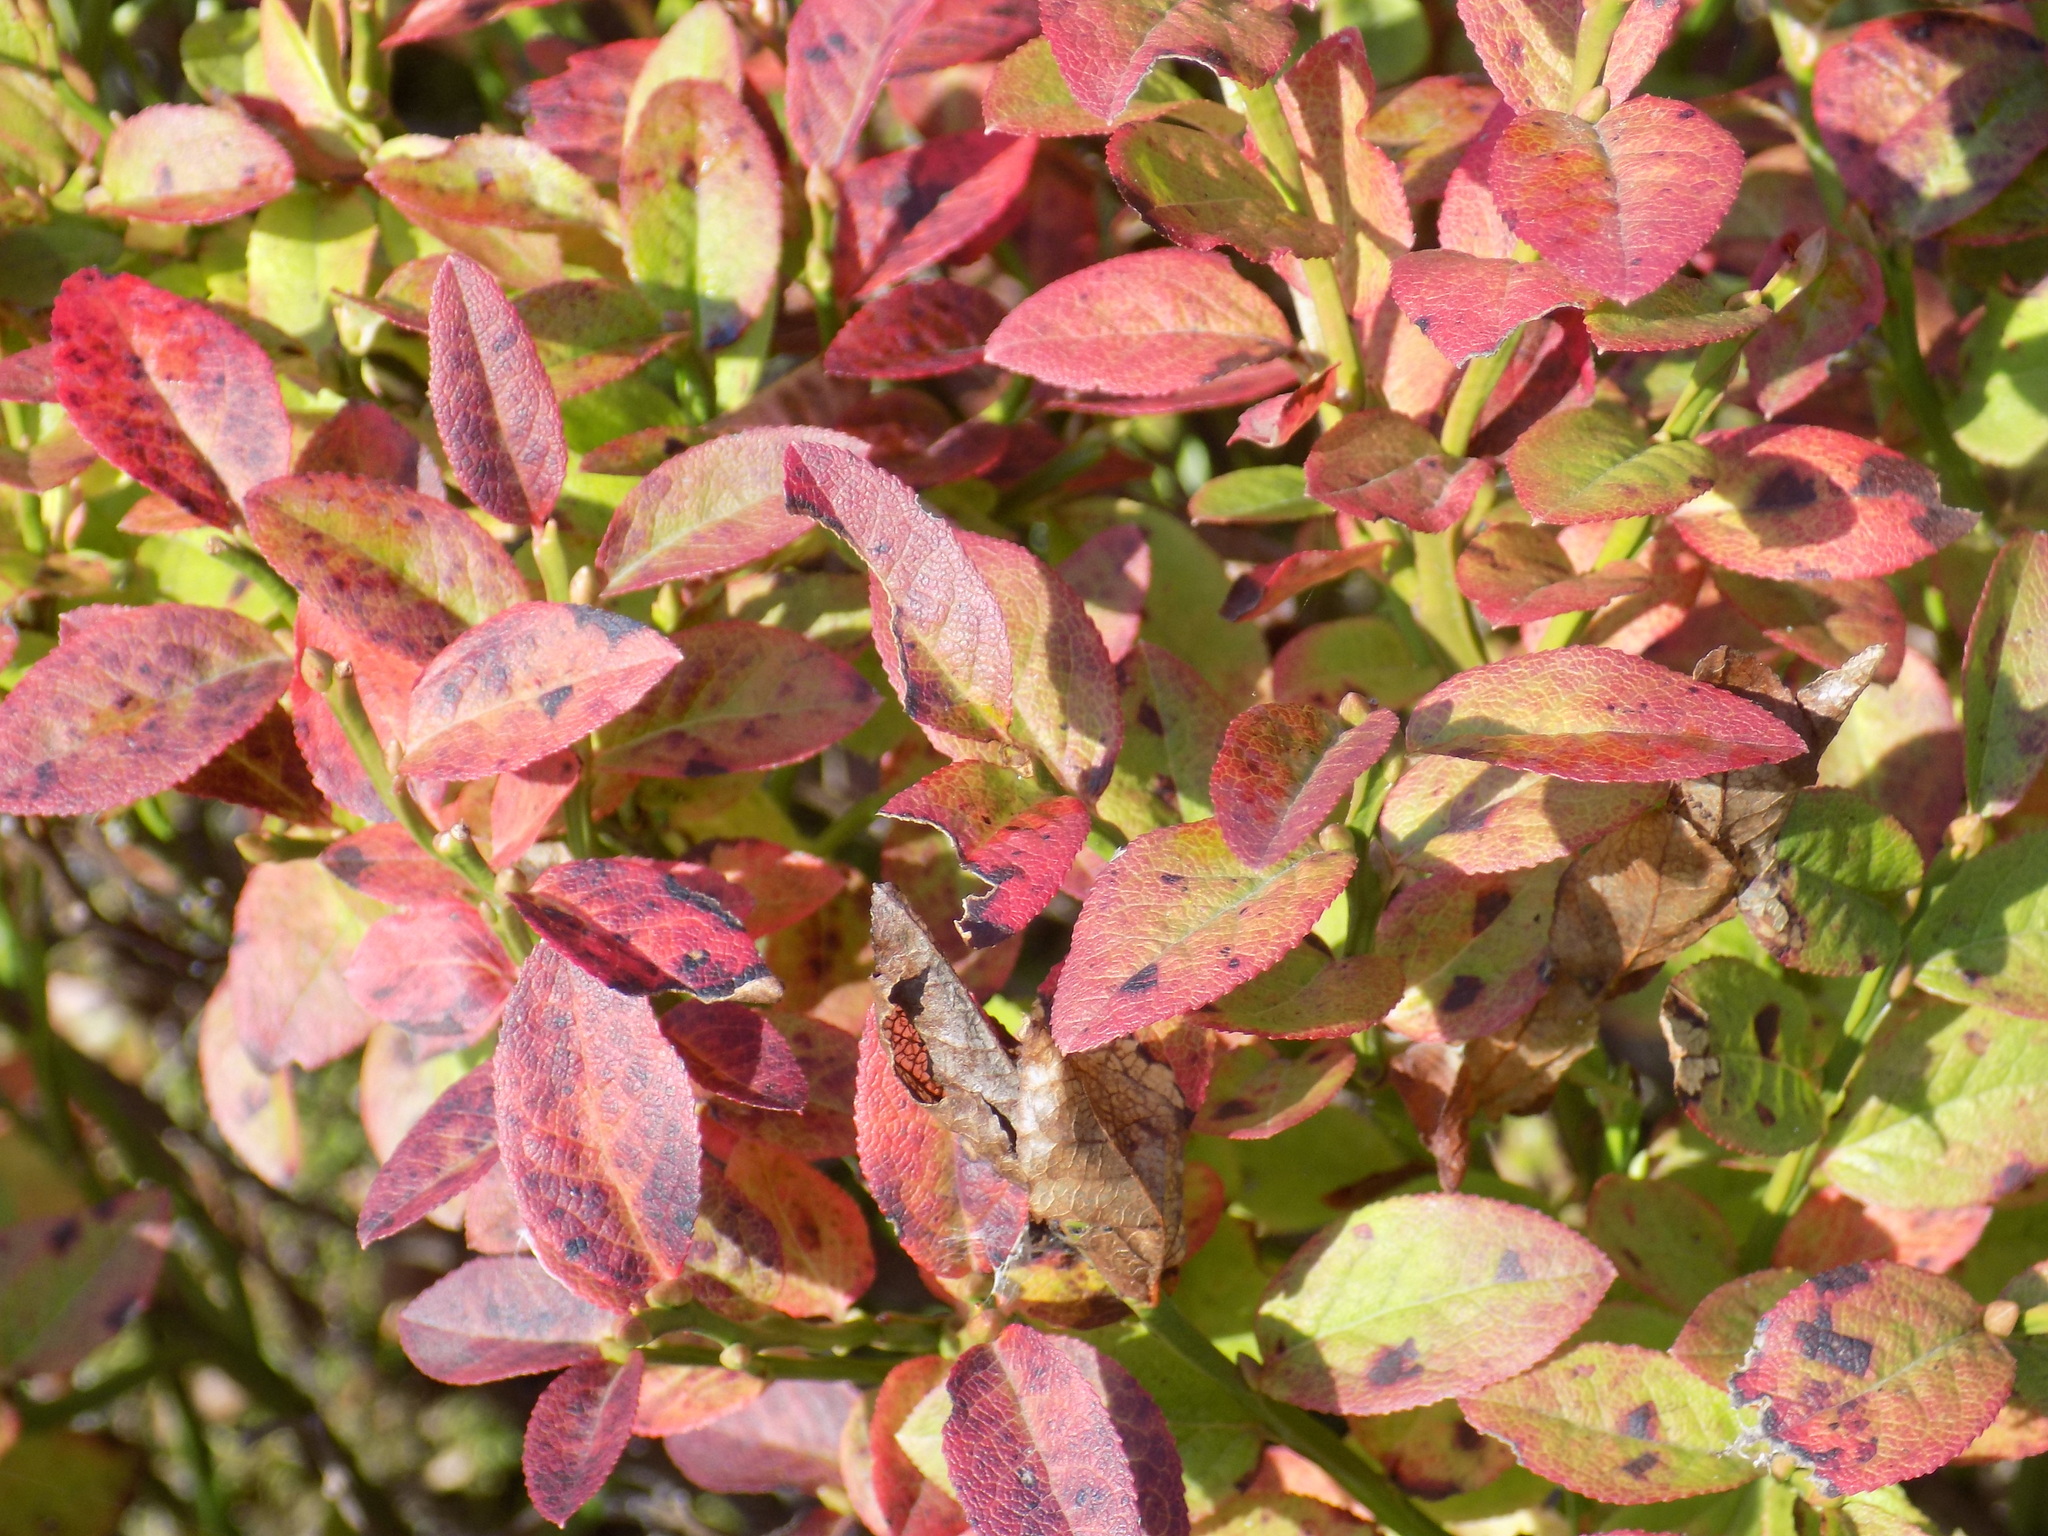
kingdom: Plantae
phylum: Tracheophyta
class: Magnoliopsida
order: Ericales
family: Ericaceae
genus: Vaccinium
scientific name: Vaccinium myrtillus
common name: Bilberry
